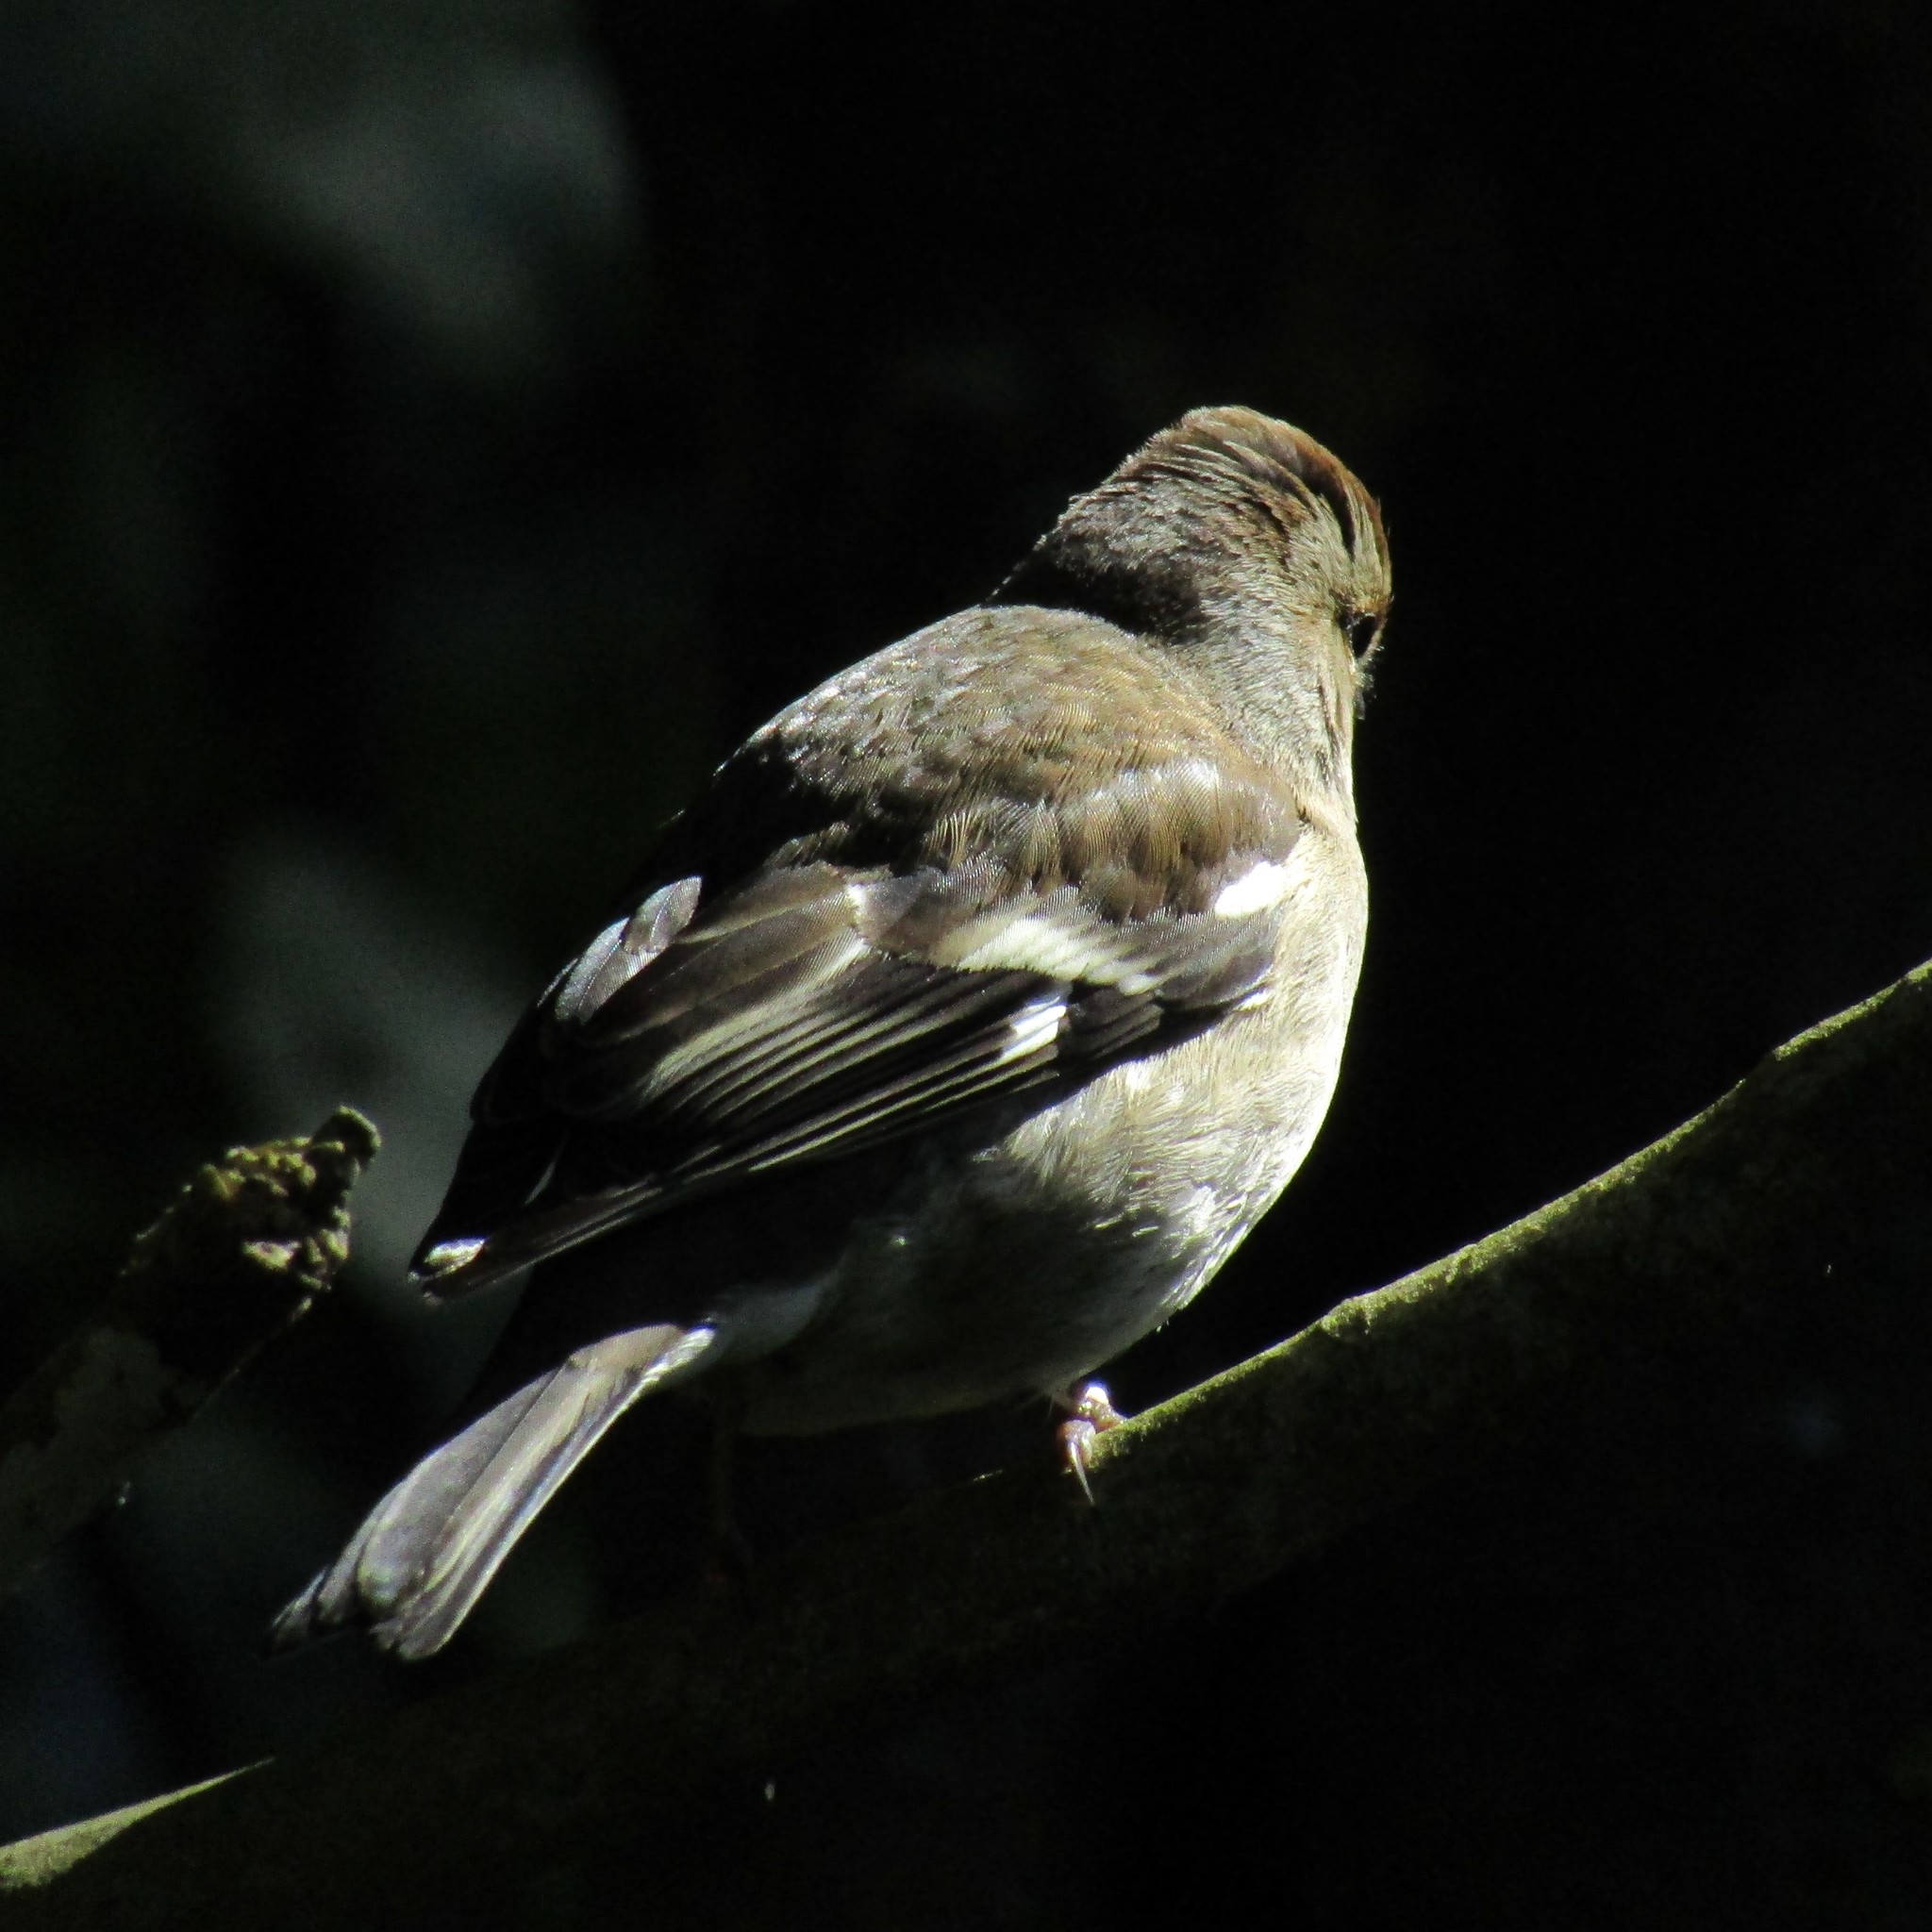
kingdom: Animalia
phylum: Chordata
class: Aves
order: Passeriformes
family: Fringillidae
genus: Fringilla
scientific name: Fringilla coelebs
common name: Common chaffinch
